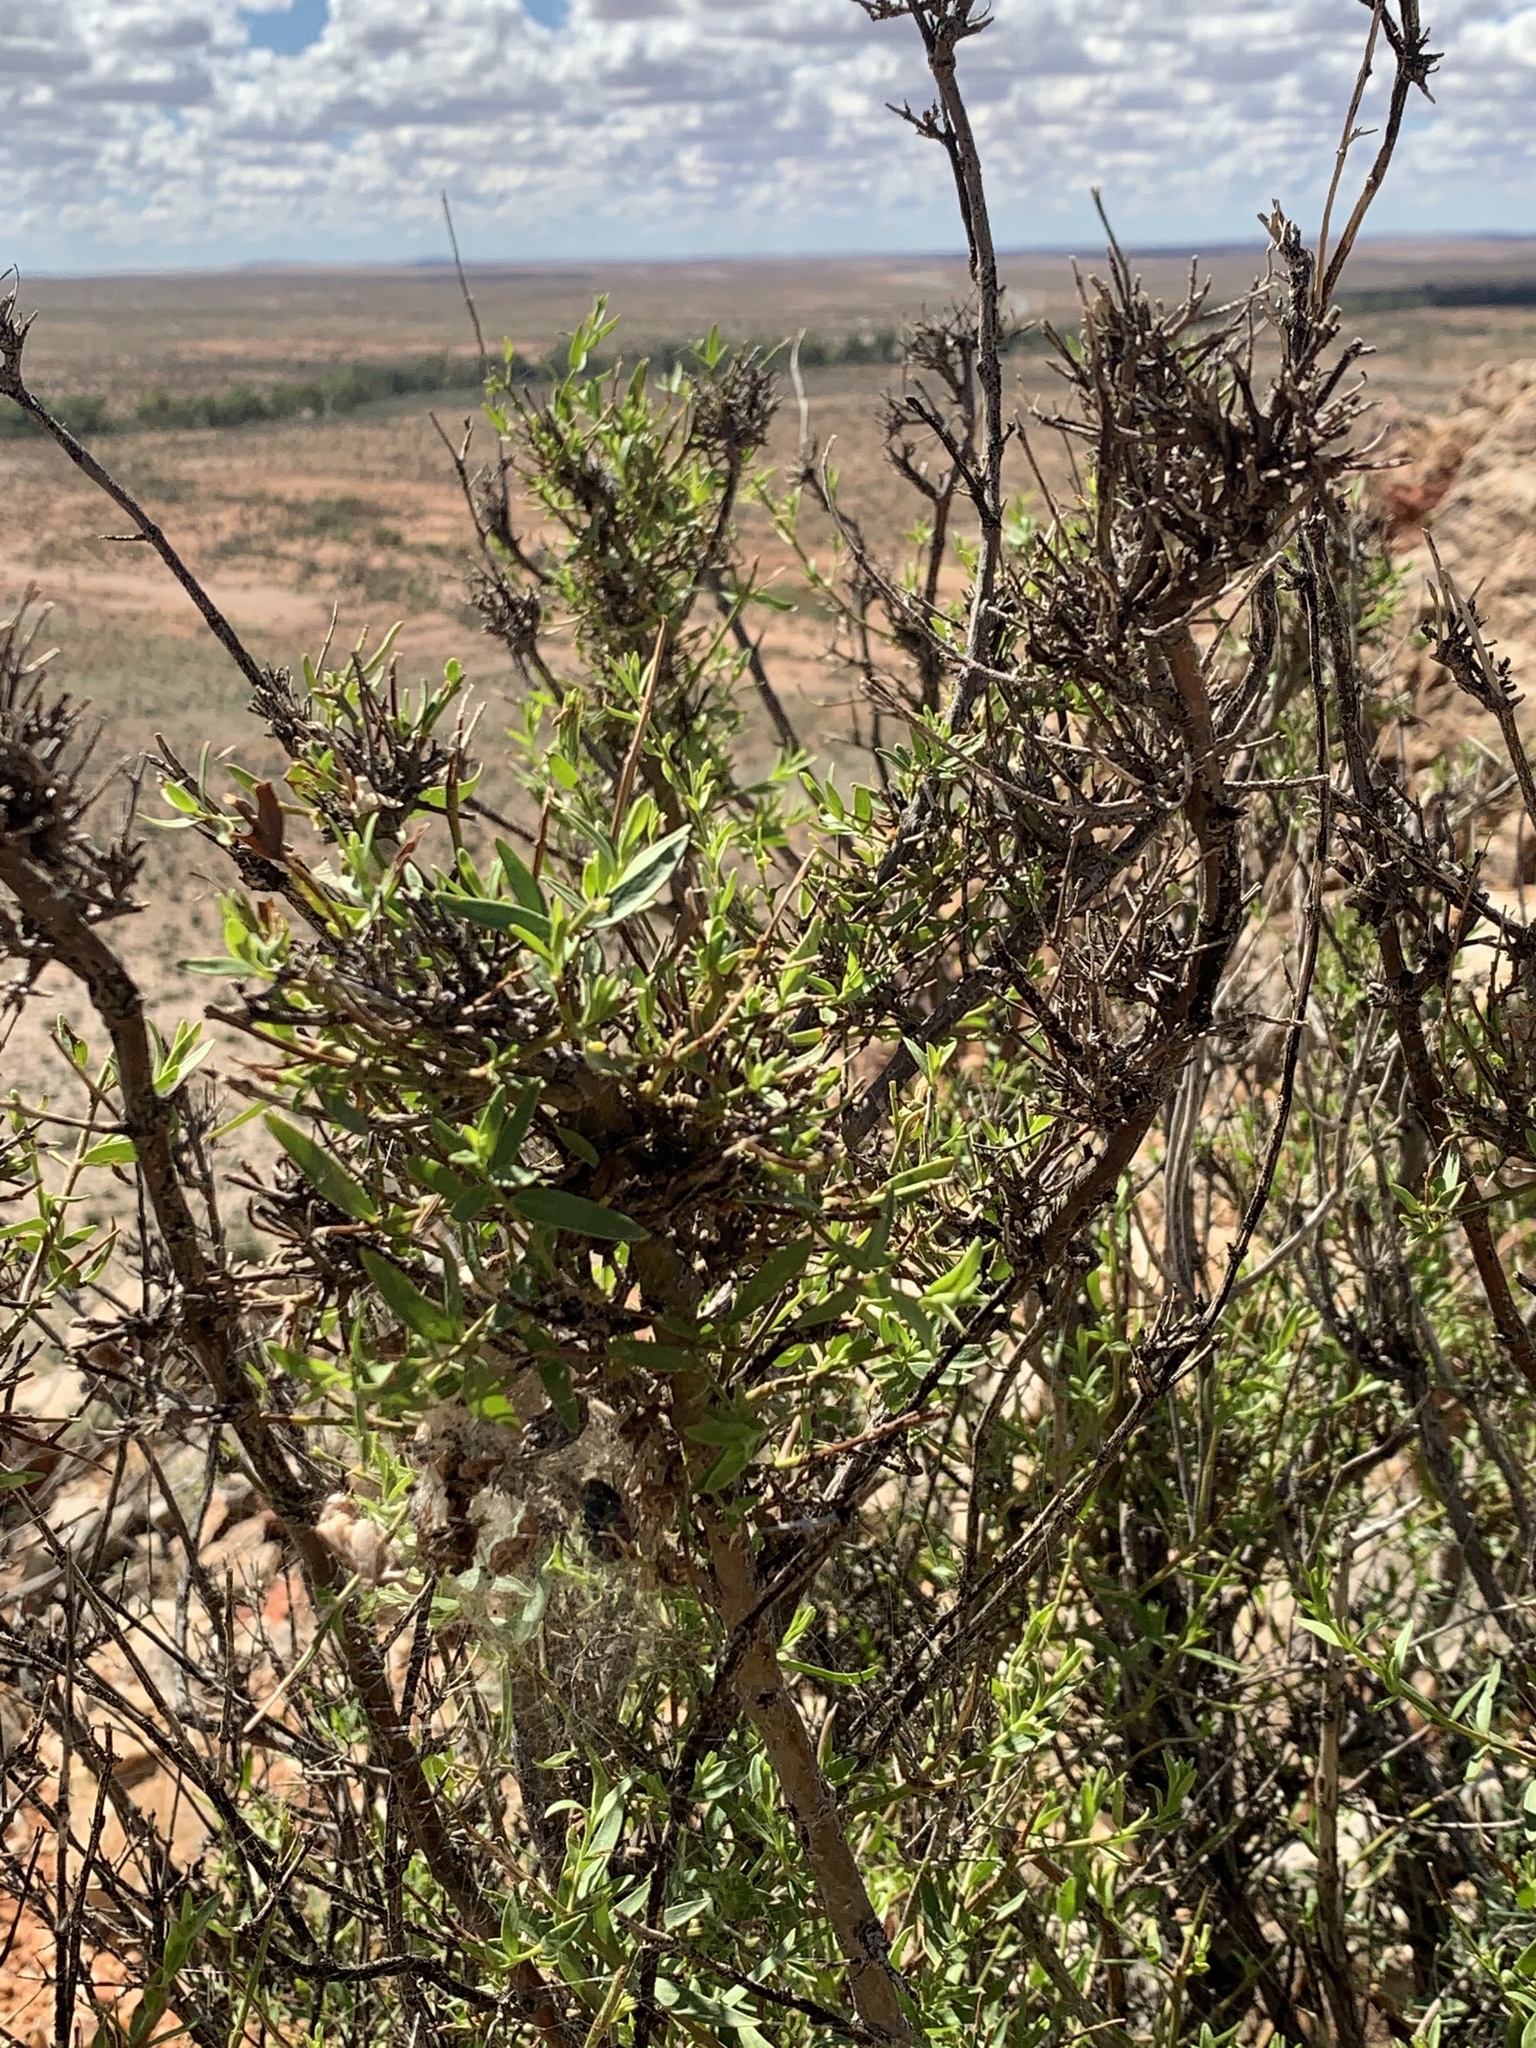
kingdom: Plantae
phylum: Tracheophyta
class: Magnoliopsida
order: Lamiales
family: Lamiaceae
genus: Prostanthera
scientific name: Prostanthera striatiflora
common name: Jockey's-cap
